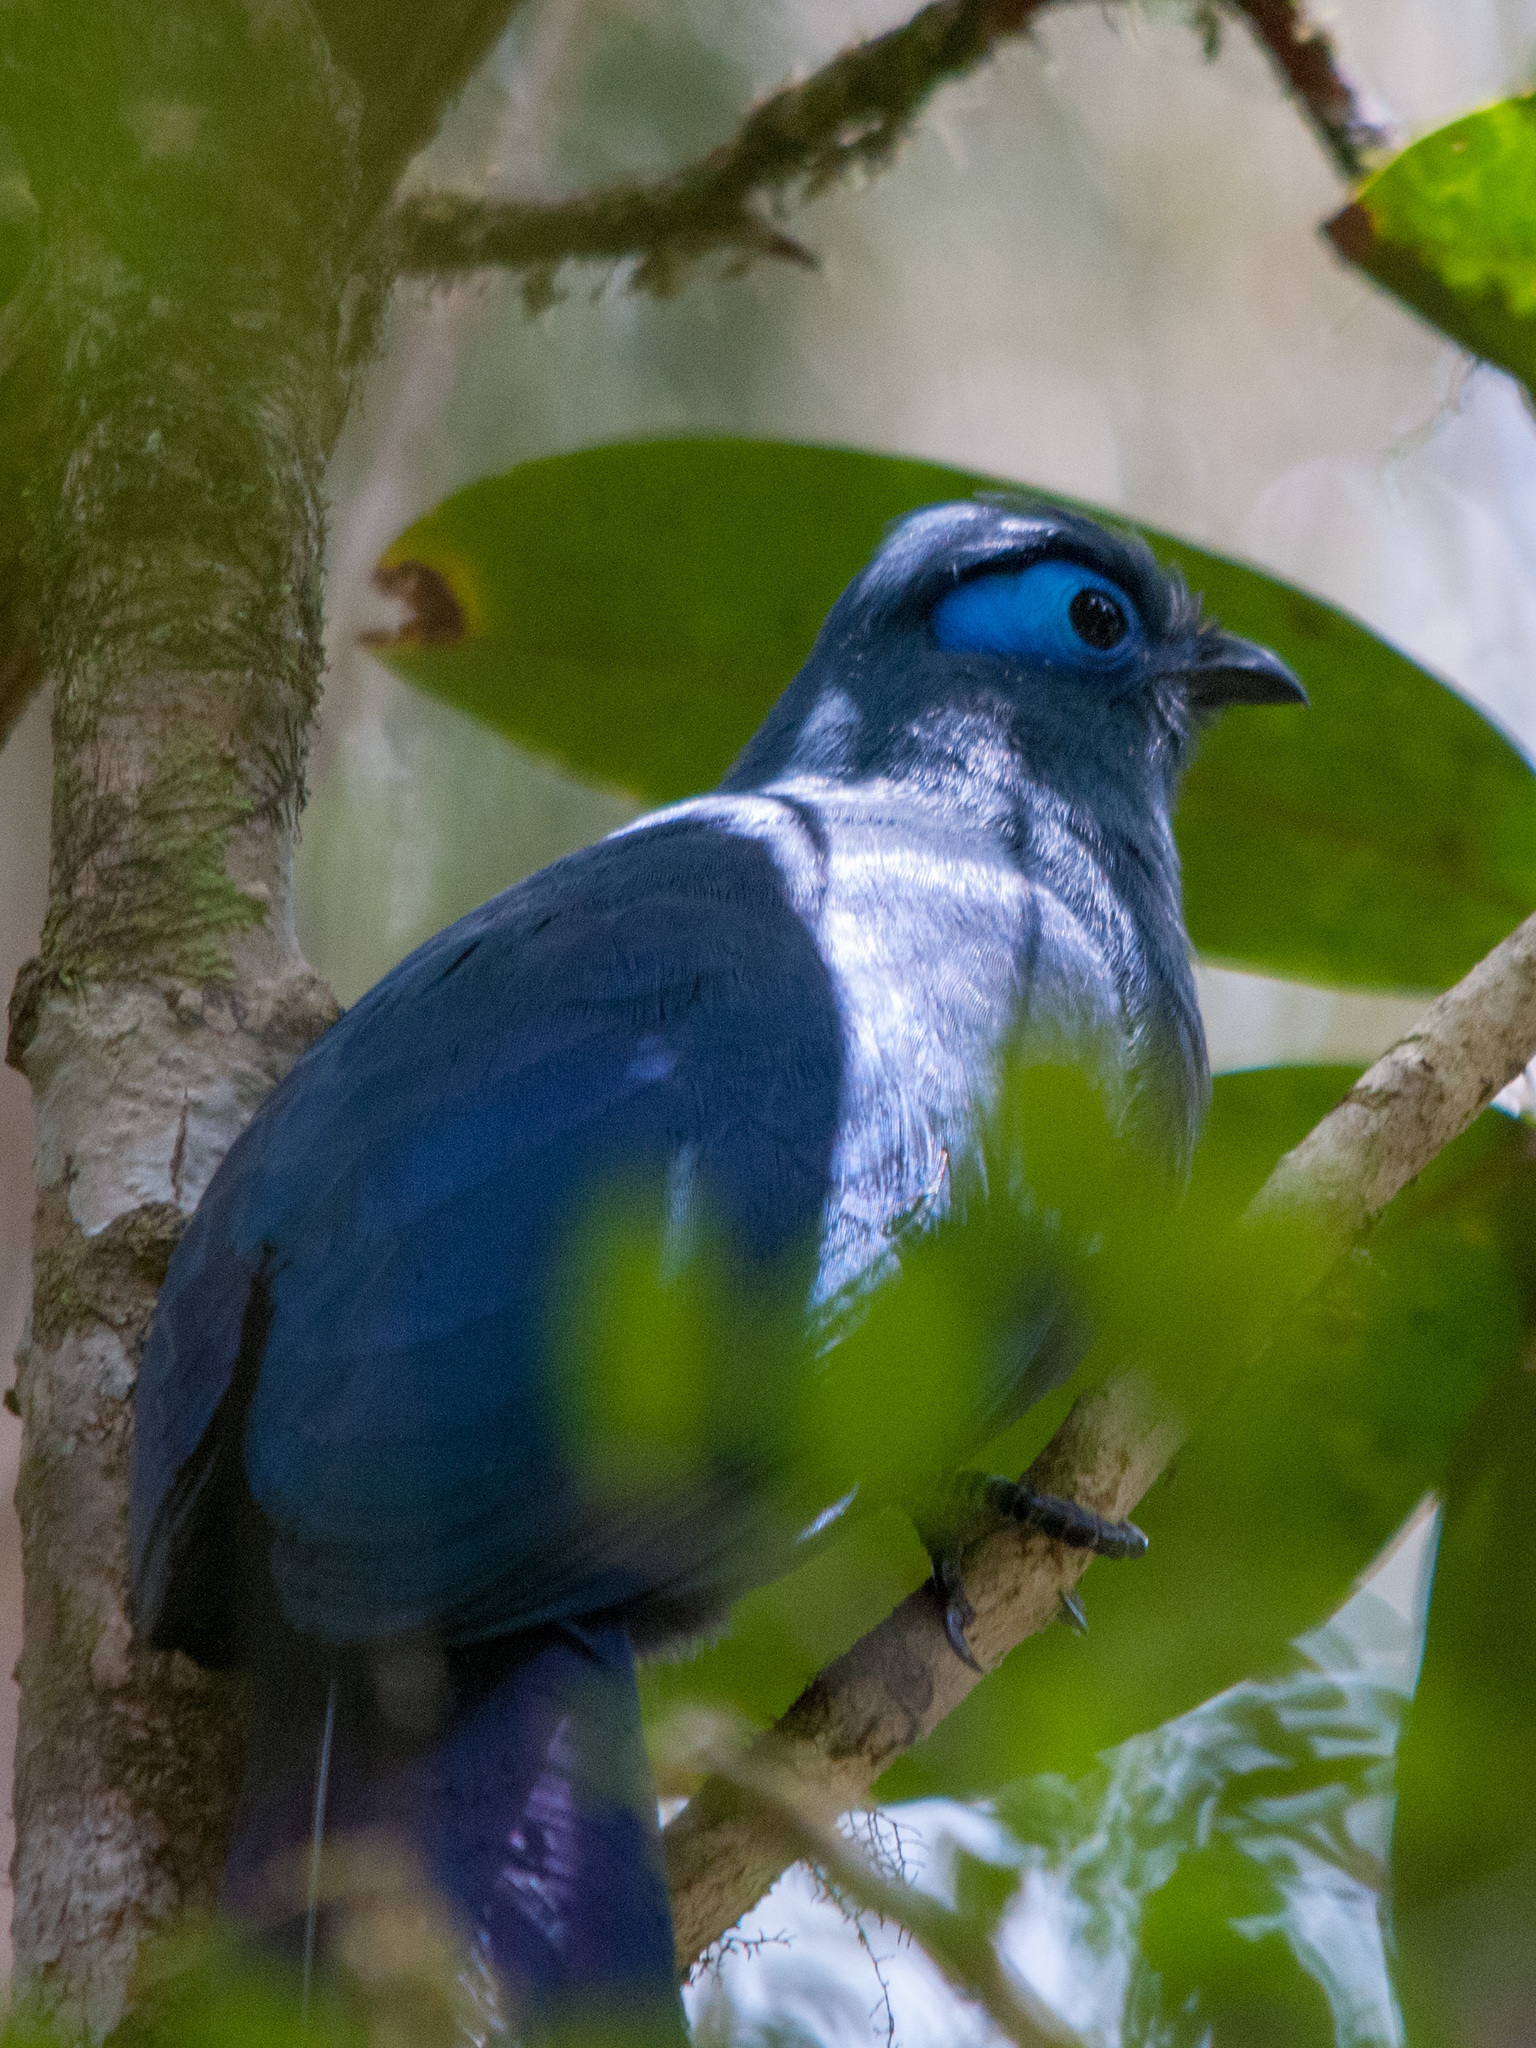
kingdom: Animalia
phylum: Chordata
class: Aves
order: Cuculiformes
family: Cuculidae
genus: Coua
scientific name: Coua caerulea
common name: Blue coua
